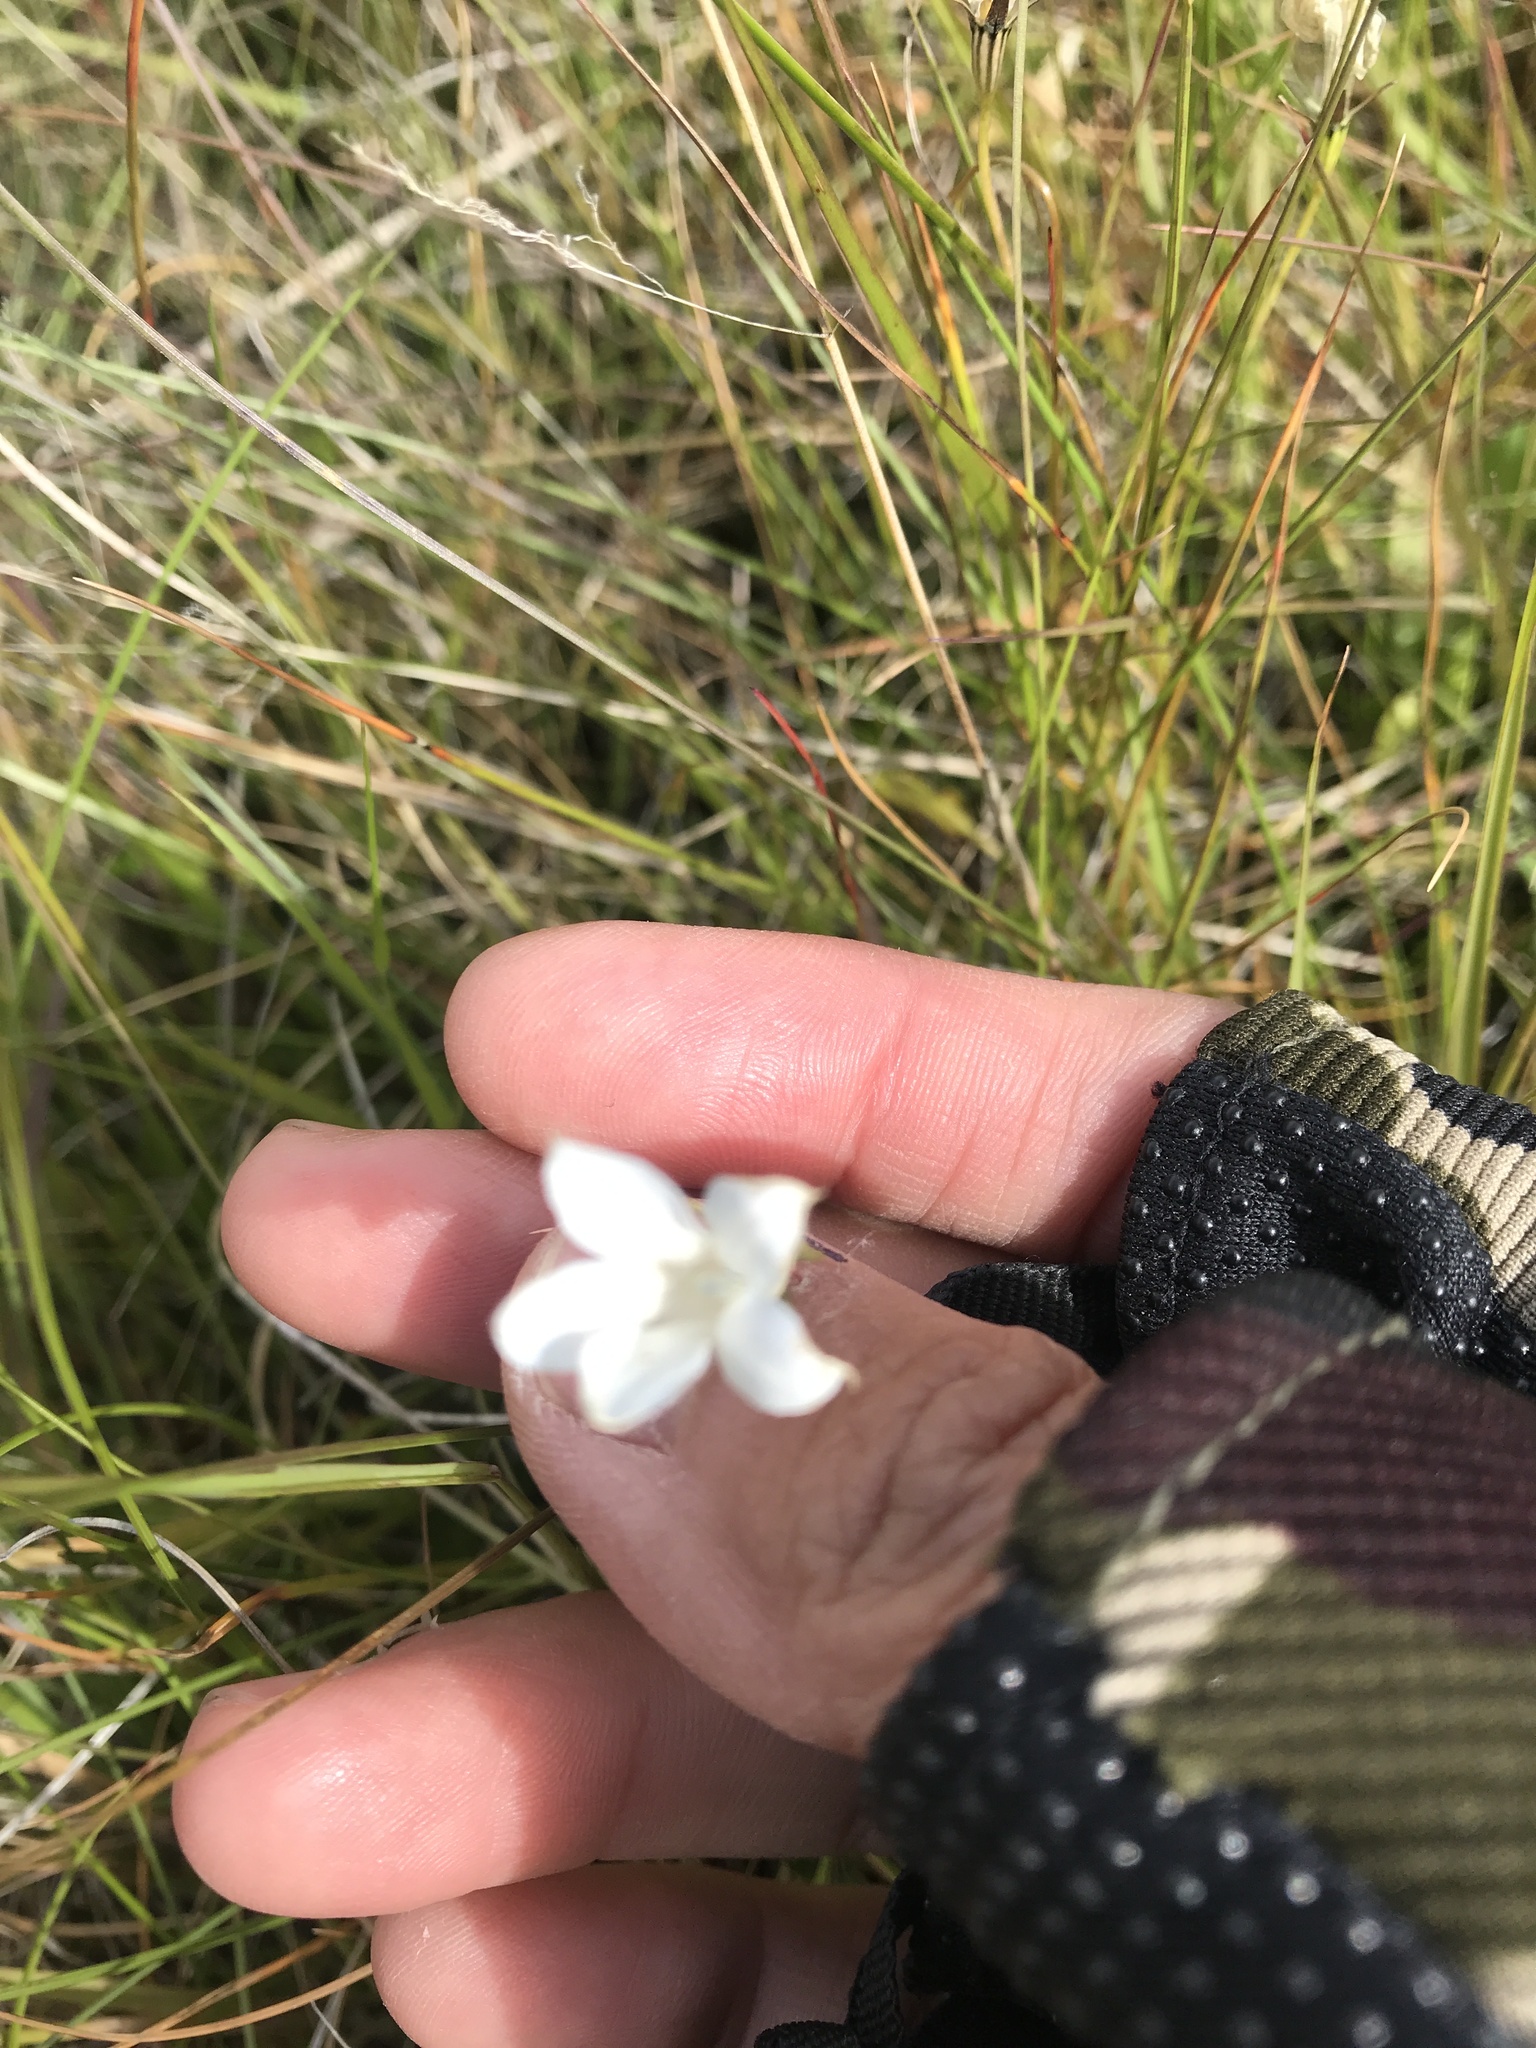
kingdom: Plantae
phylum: Tracheophyta
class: Magnoliopsida
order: Asterales
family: Campanulaceae
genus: Wahlenbergia
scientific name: Wahlenbergia albomarginata
